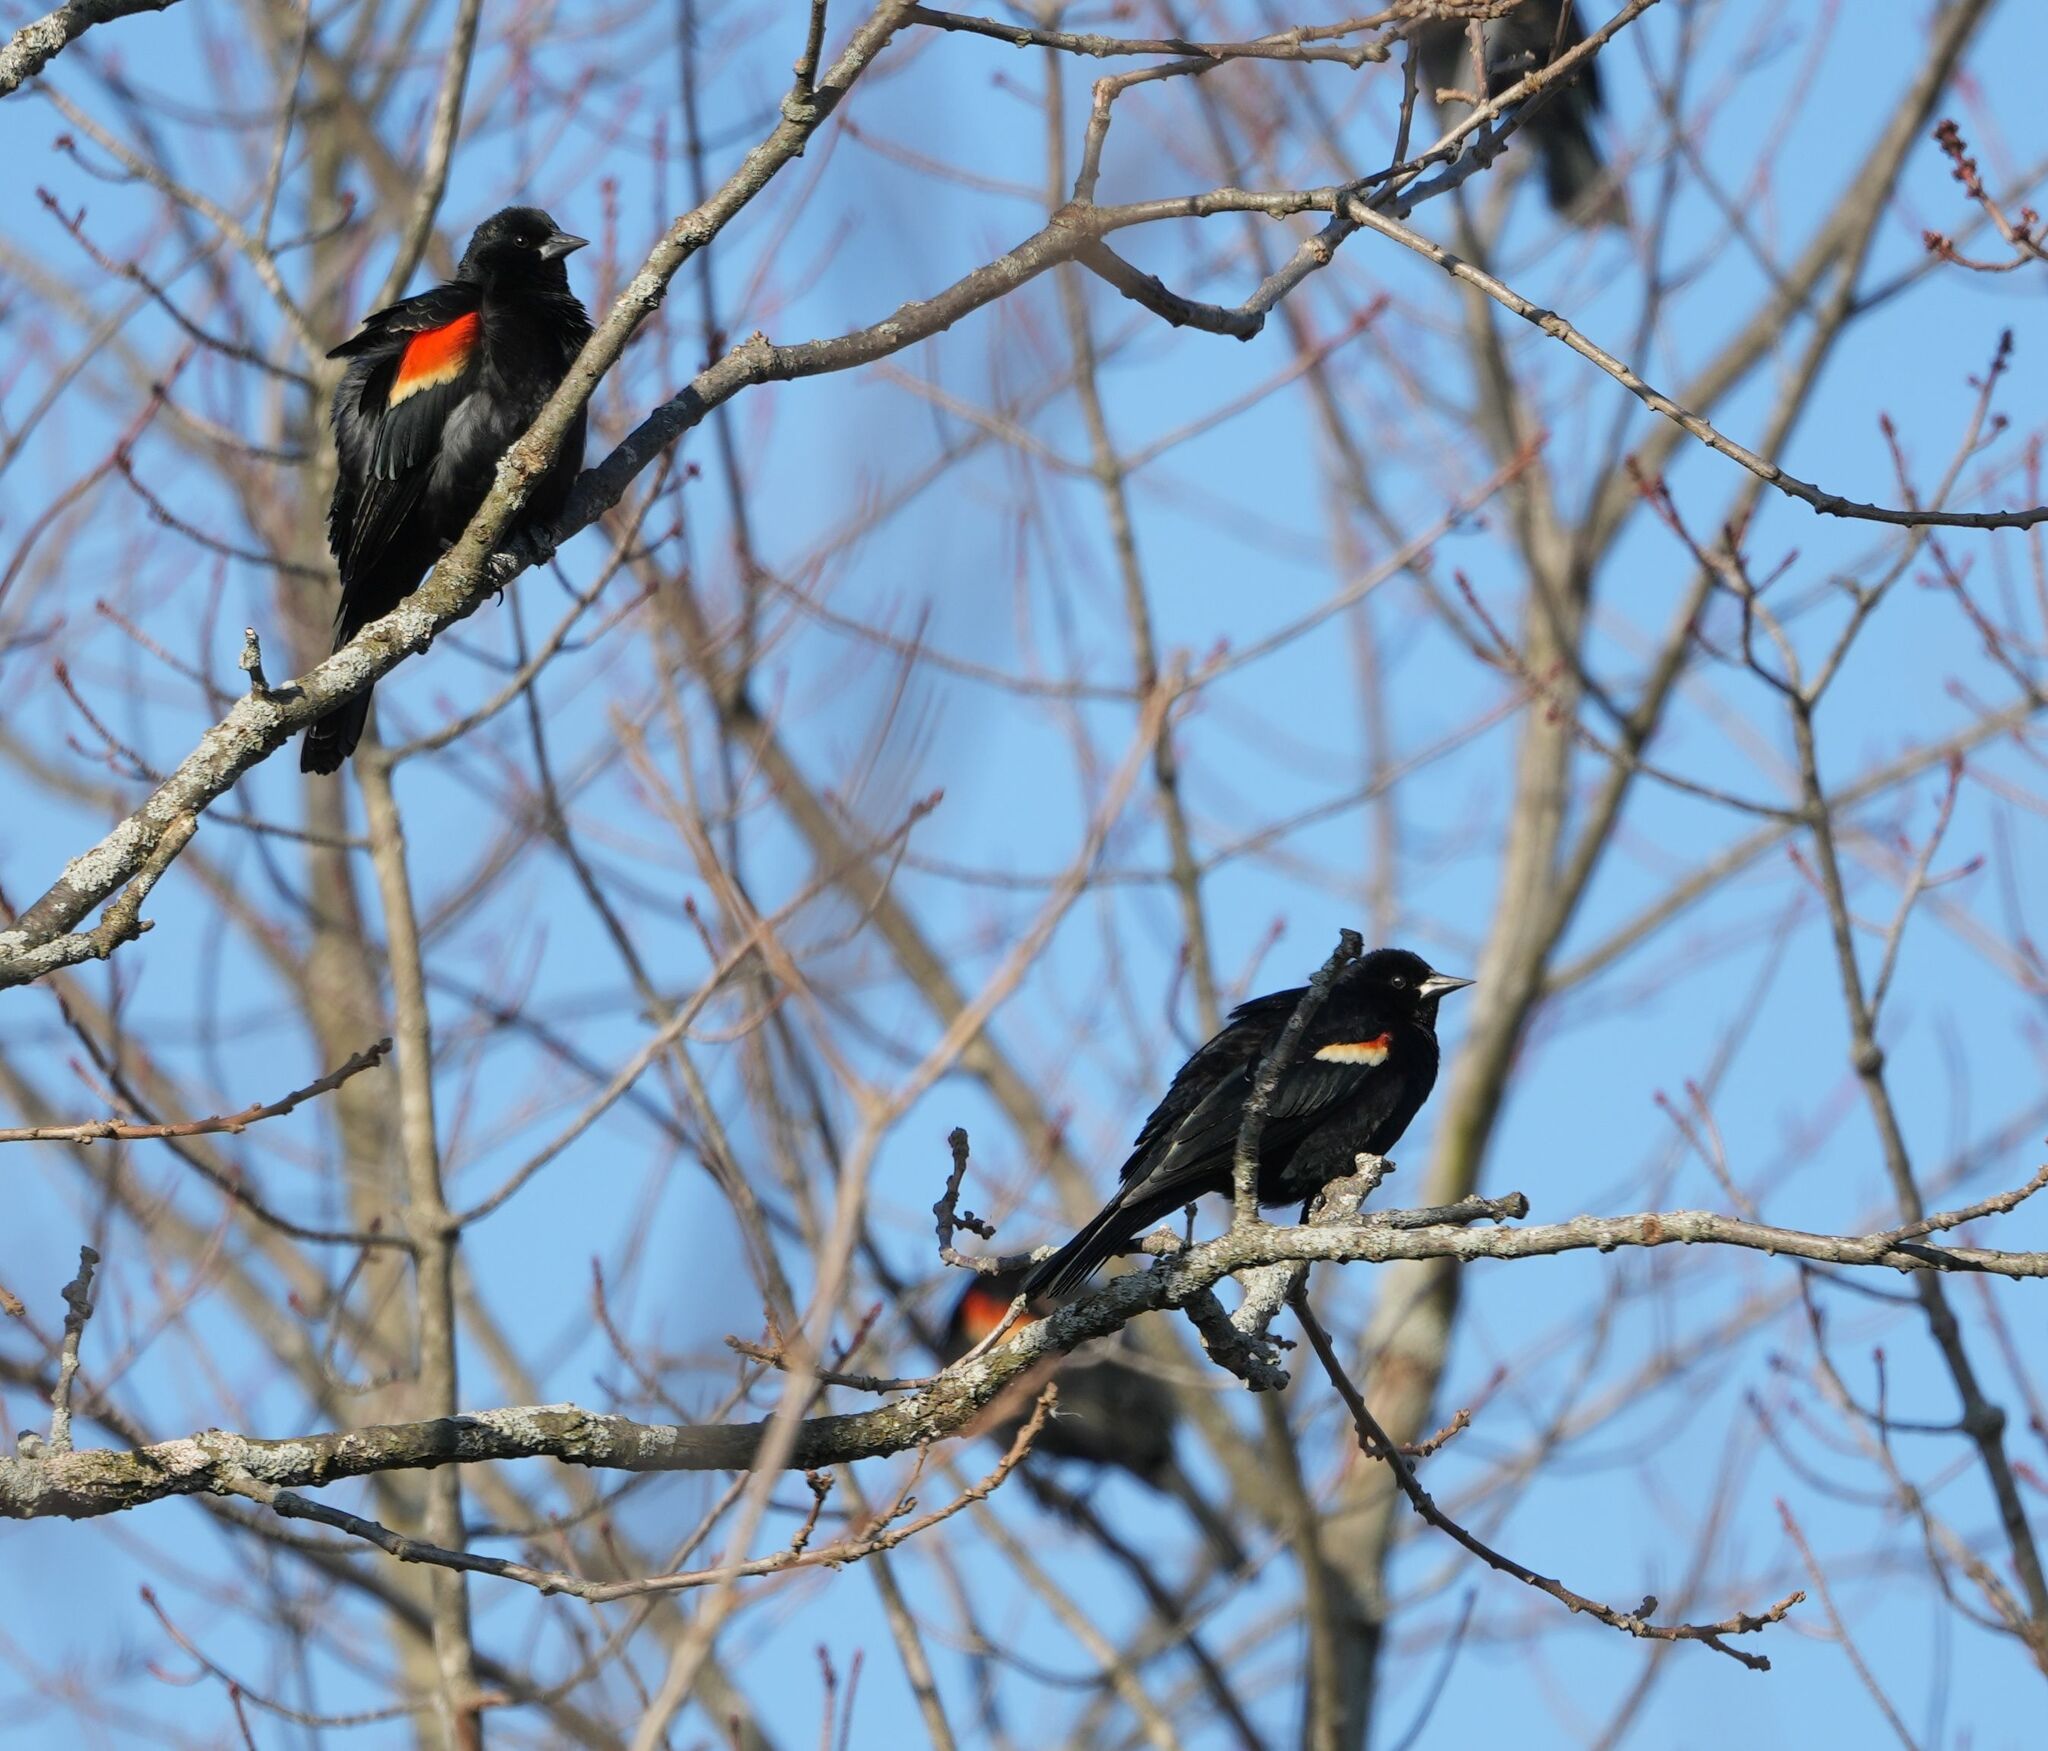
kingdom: Animalia
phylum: Chordata
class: Aves
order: Passeriformes
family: Icteridae
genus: Agelaius
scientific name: Agelaius phoeniceus
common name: Red-winged blackbird
